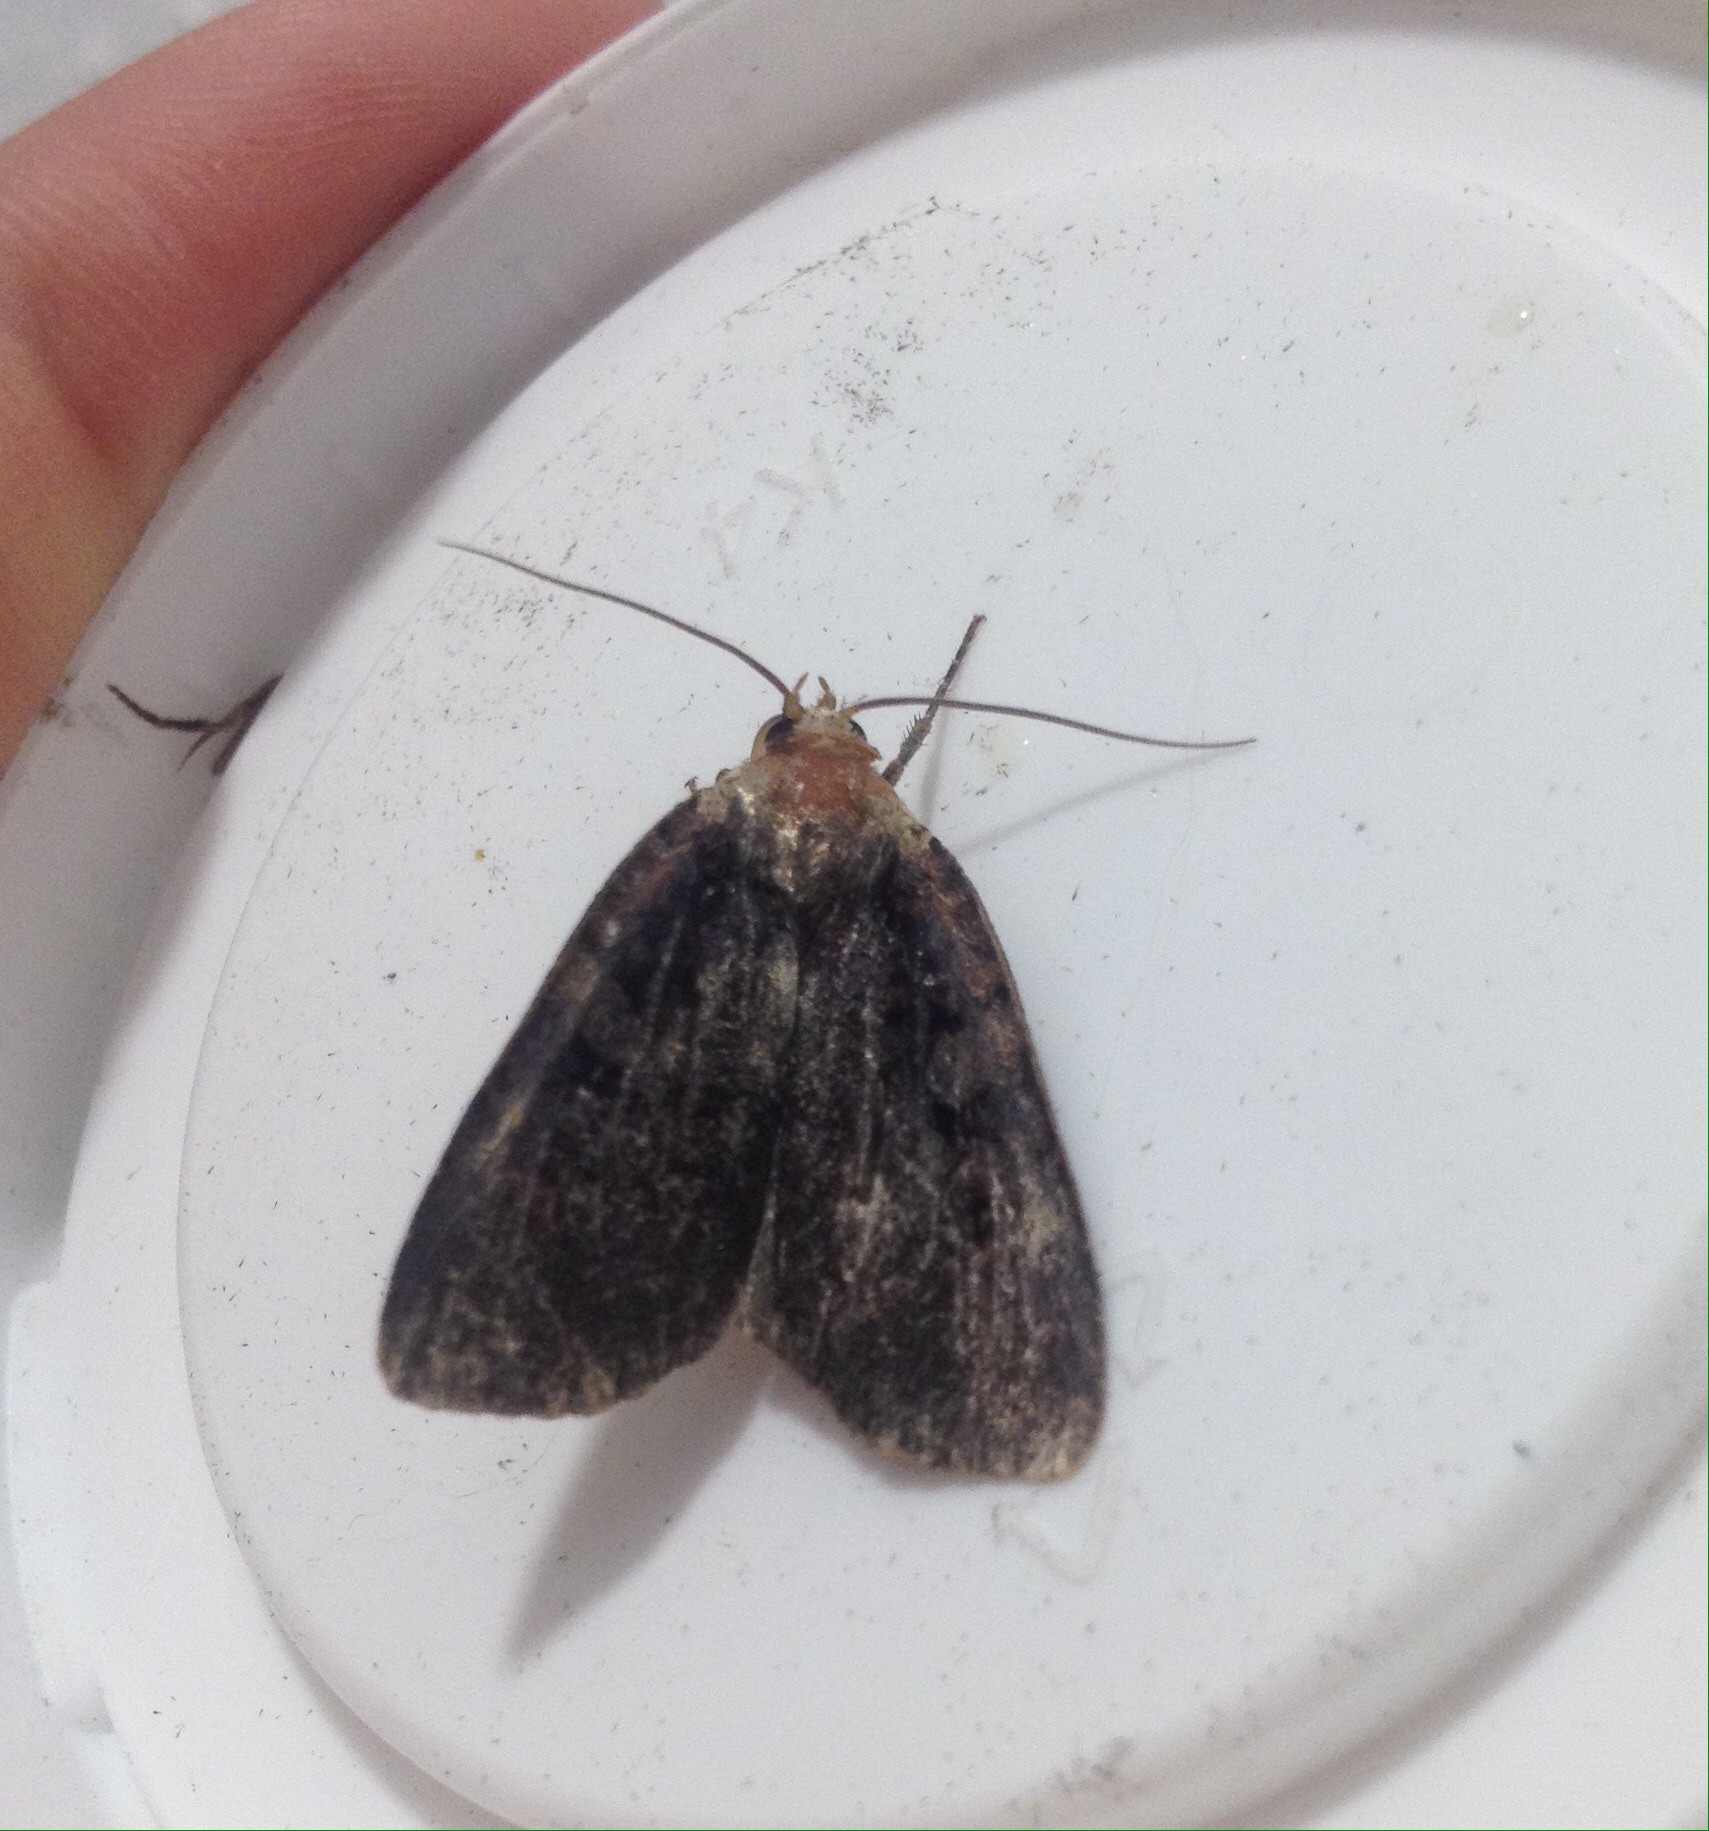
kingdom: Animalia
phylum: Arthropoda
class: Insecta
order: Lepidoptera
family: Noctuidae
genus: Eugraphe
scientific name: Eugraphe sigma
